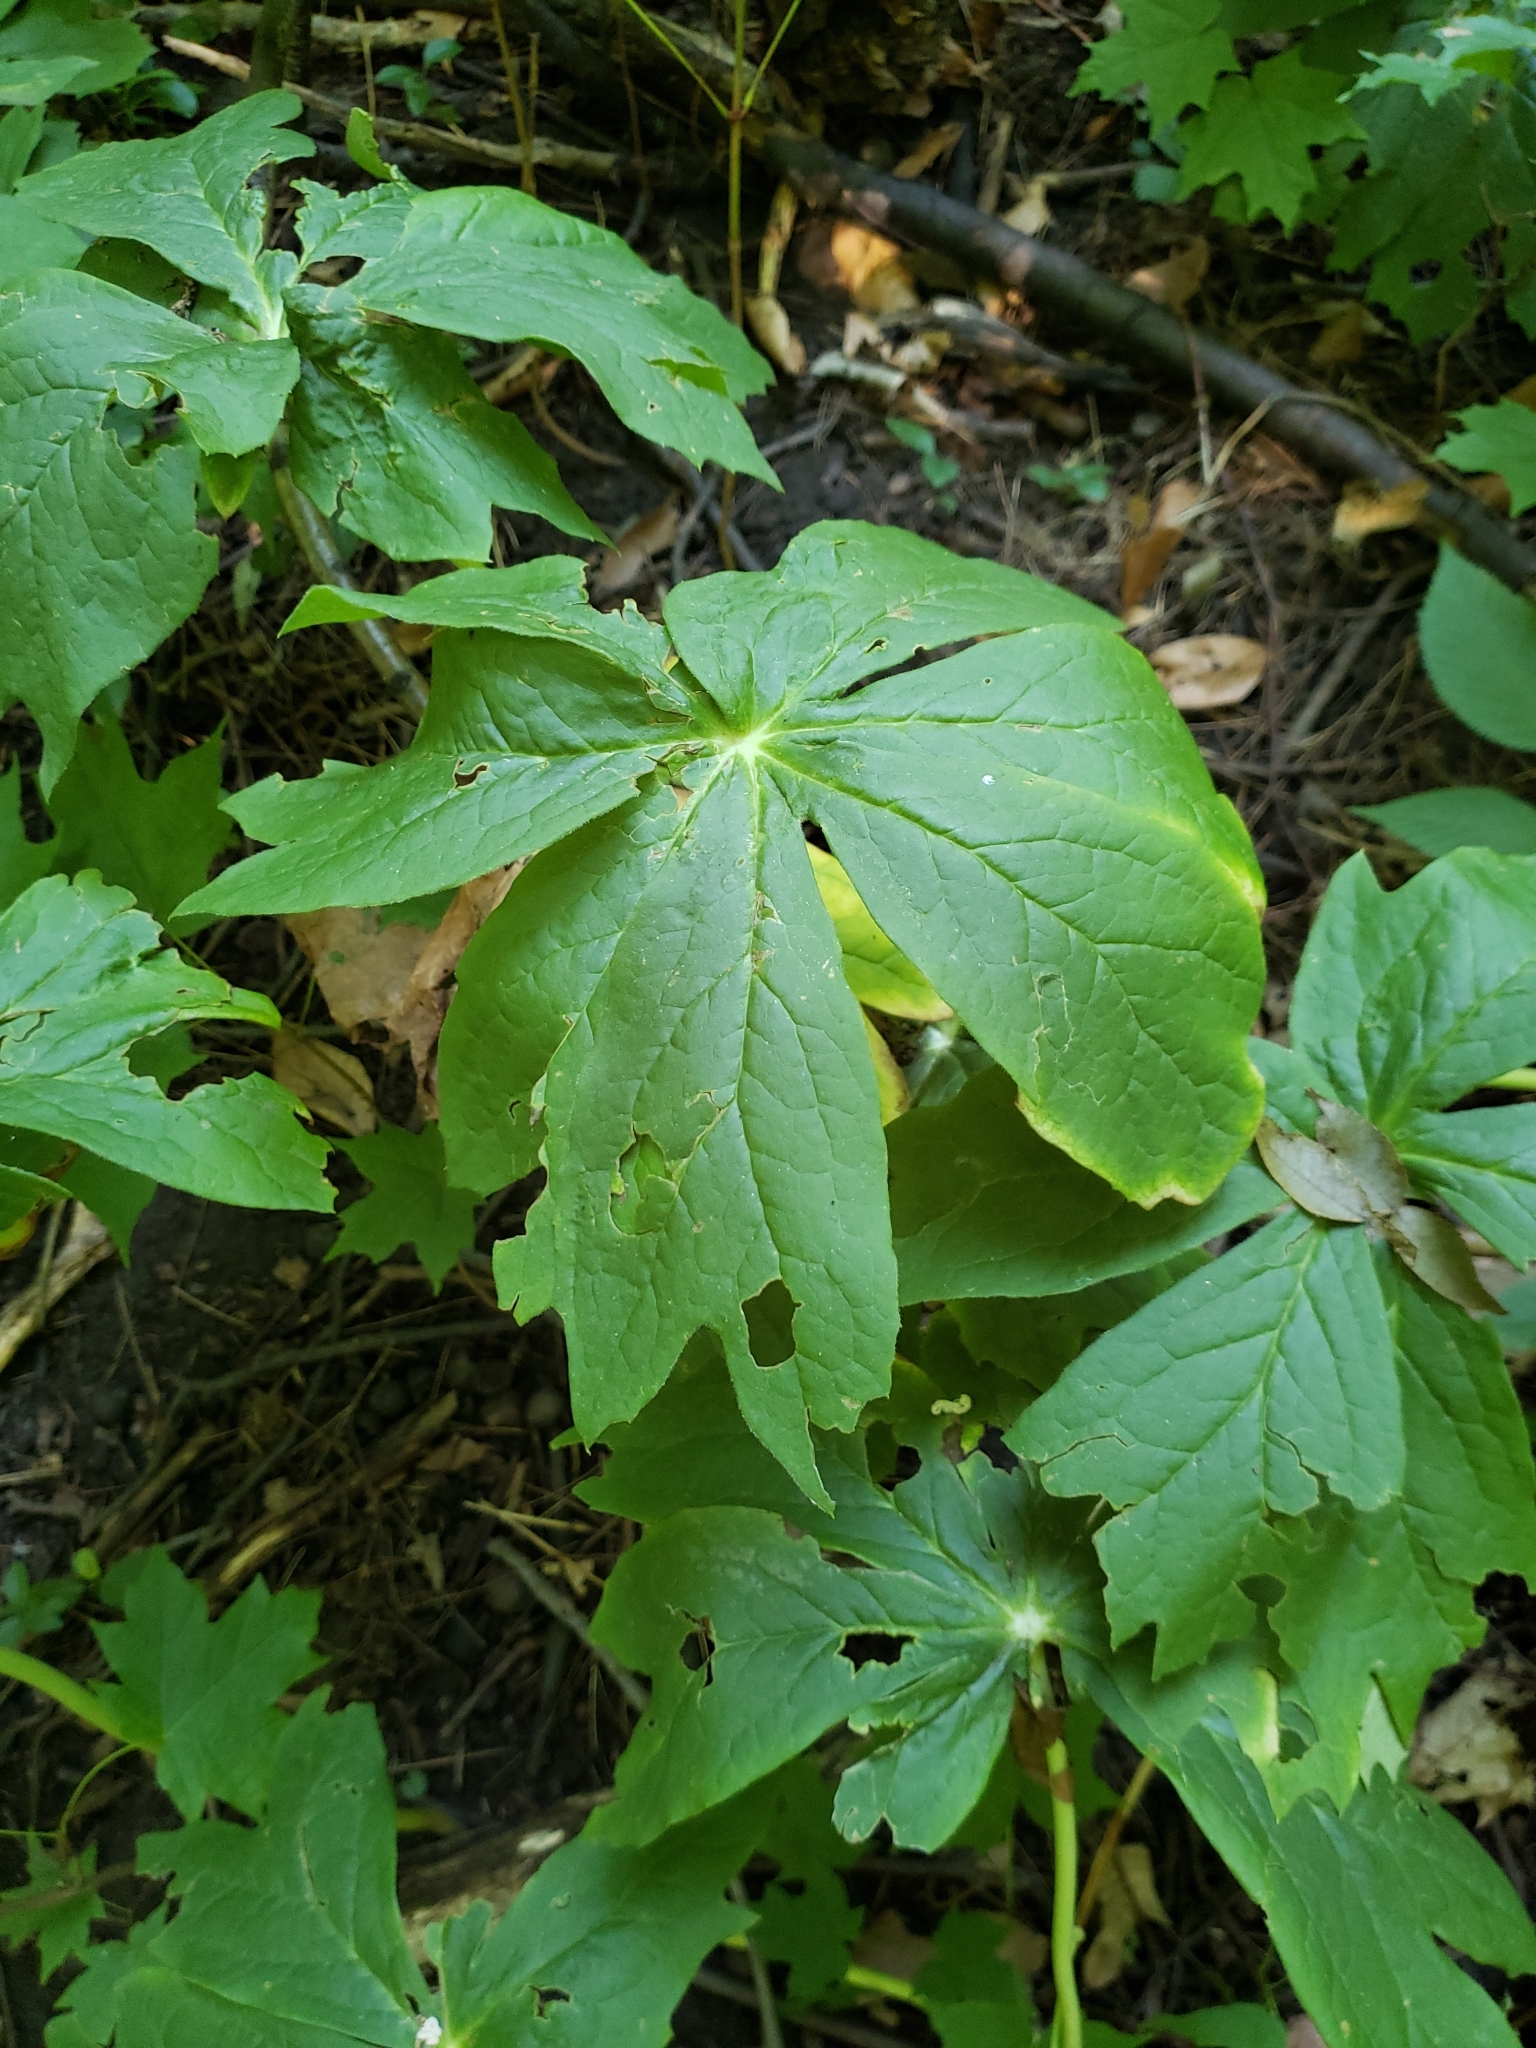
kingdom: Plantae
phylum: Tracheophyta
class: Magnoliopsida
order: Ranunculales
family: Berberidaceae
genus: Podophyllum
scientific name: Podophyllum peltatum
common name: Wild mandrake
